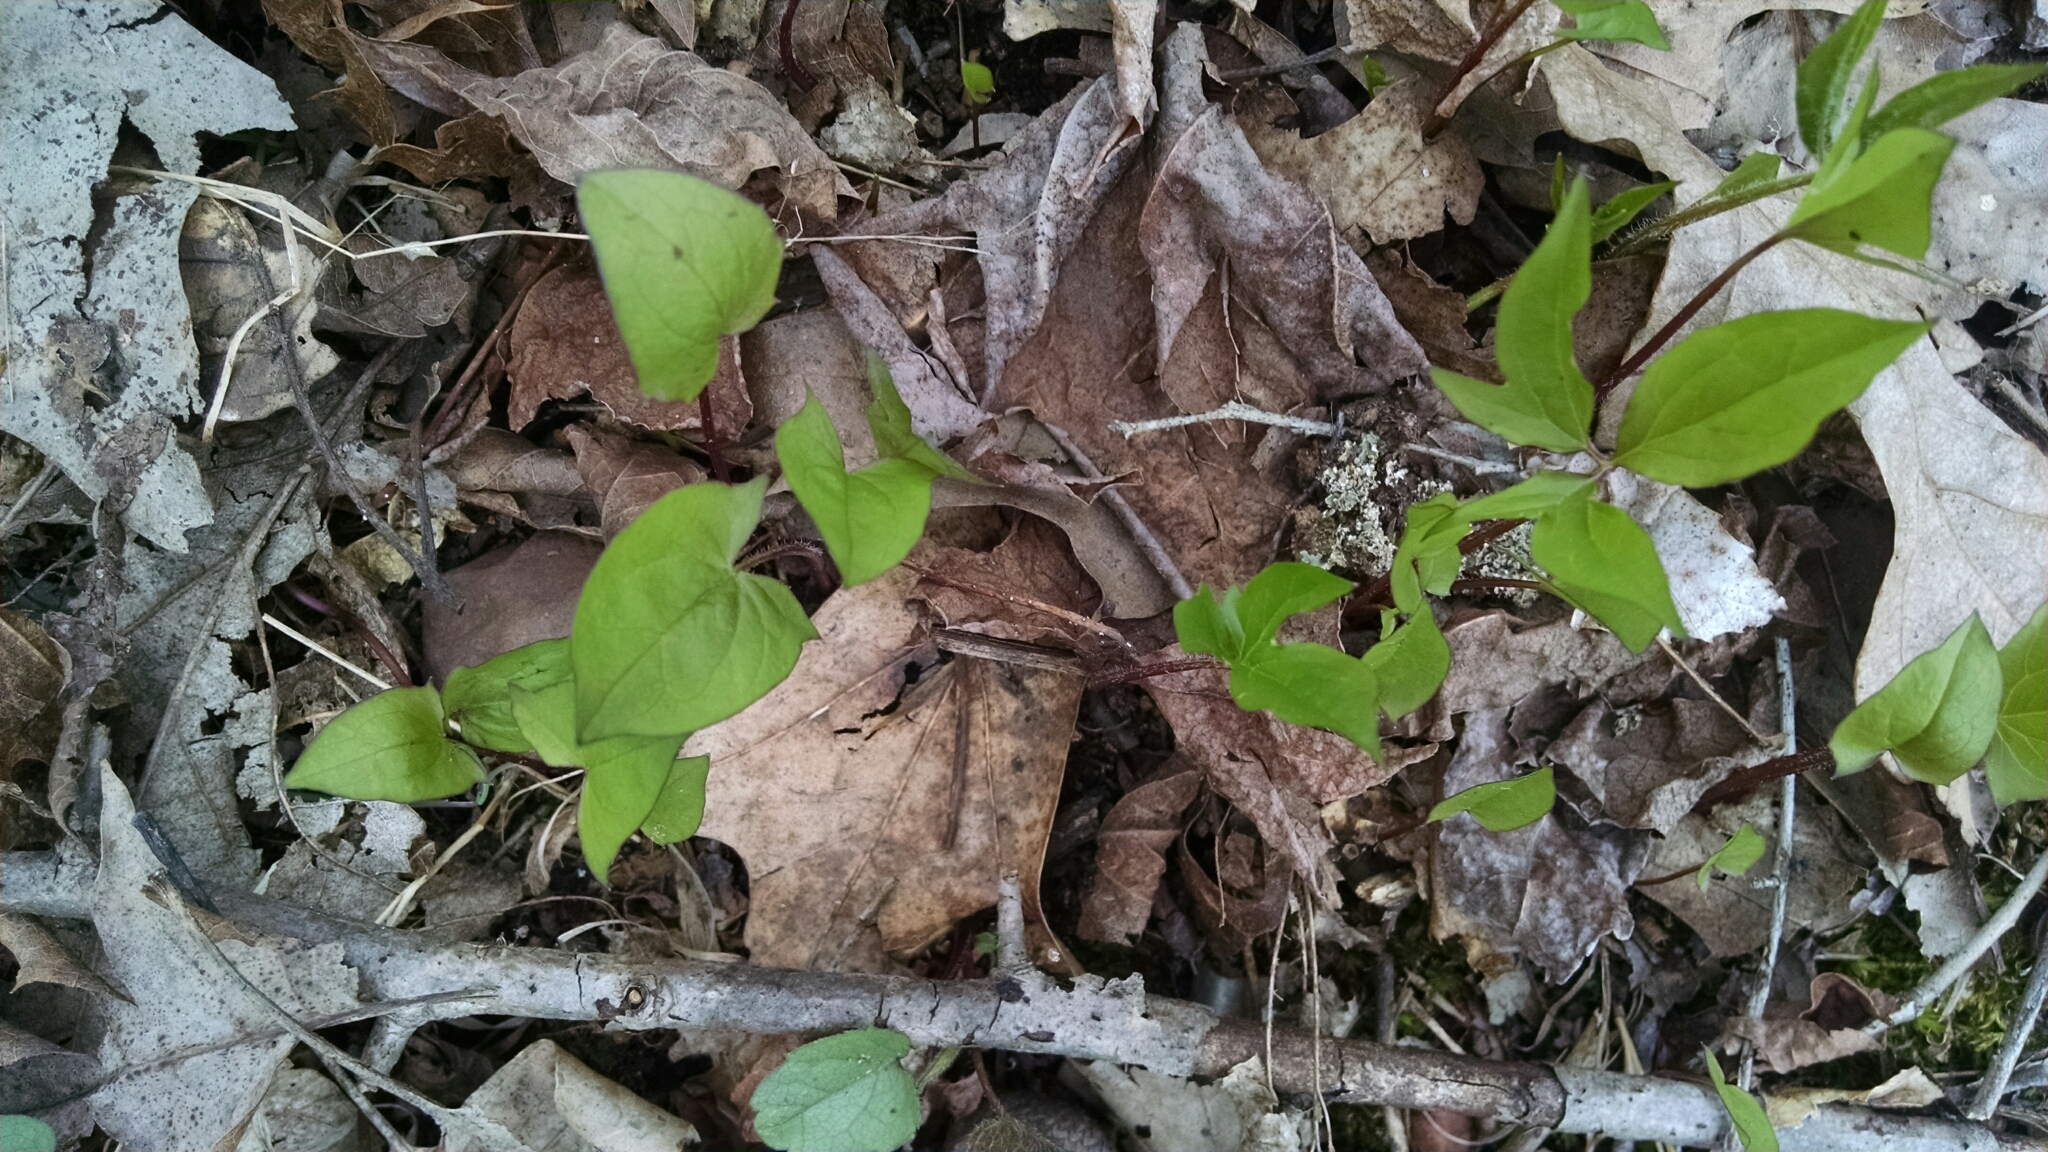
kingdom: Plantae
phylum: Tracheophyta
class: Magnoliopsida
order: Asterales
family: Asteraceae
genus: Nabalus
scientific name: Nabalus
